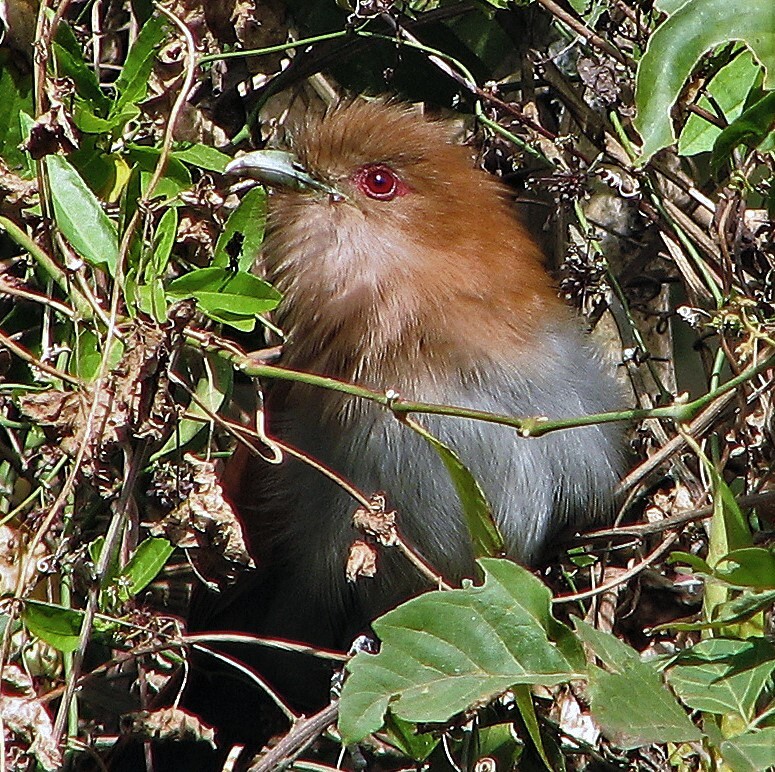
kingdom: Animalia
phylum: Chordata
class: Aves
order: Cuculiformes
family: Cuculidae
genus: Piaya
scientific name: Piaya cayana
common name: Squirrel cuckoo
